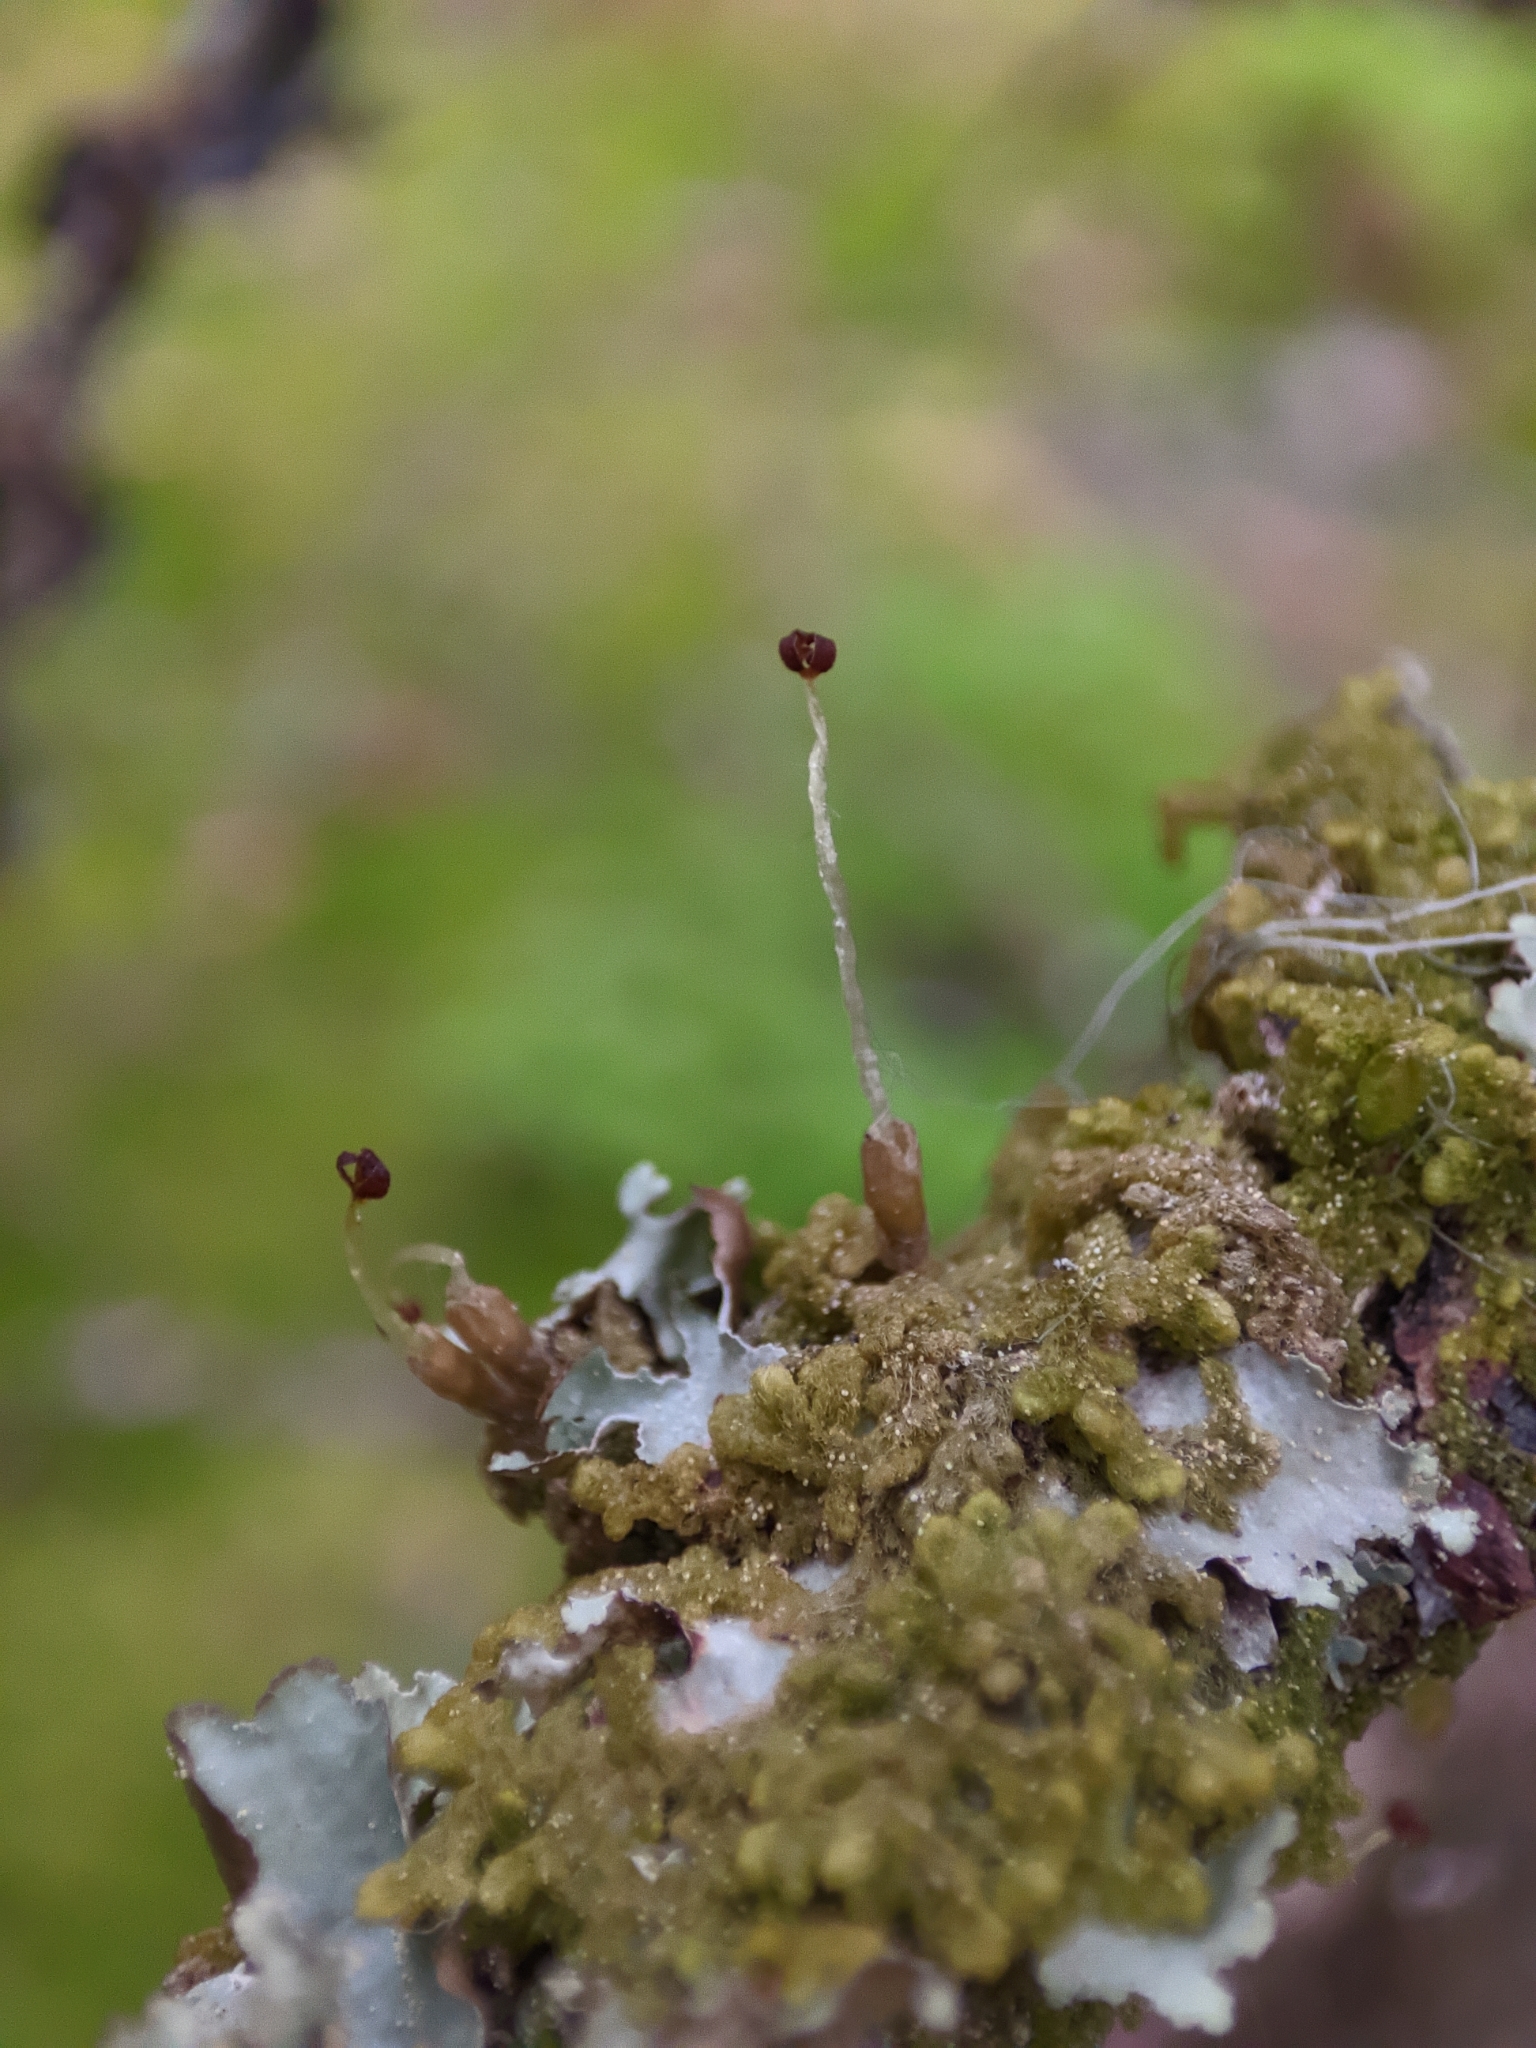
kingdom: Plantae
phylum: Marchantiophyta
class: Jungermanniopsida
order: Ptilidiales
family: Ptilidiaceae
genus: Ptilidium
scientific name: Ptilidium pulcherrimum
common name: Tree fringewort
